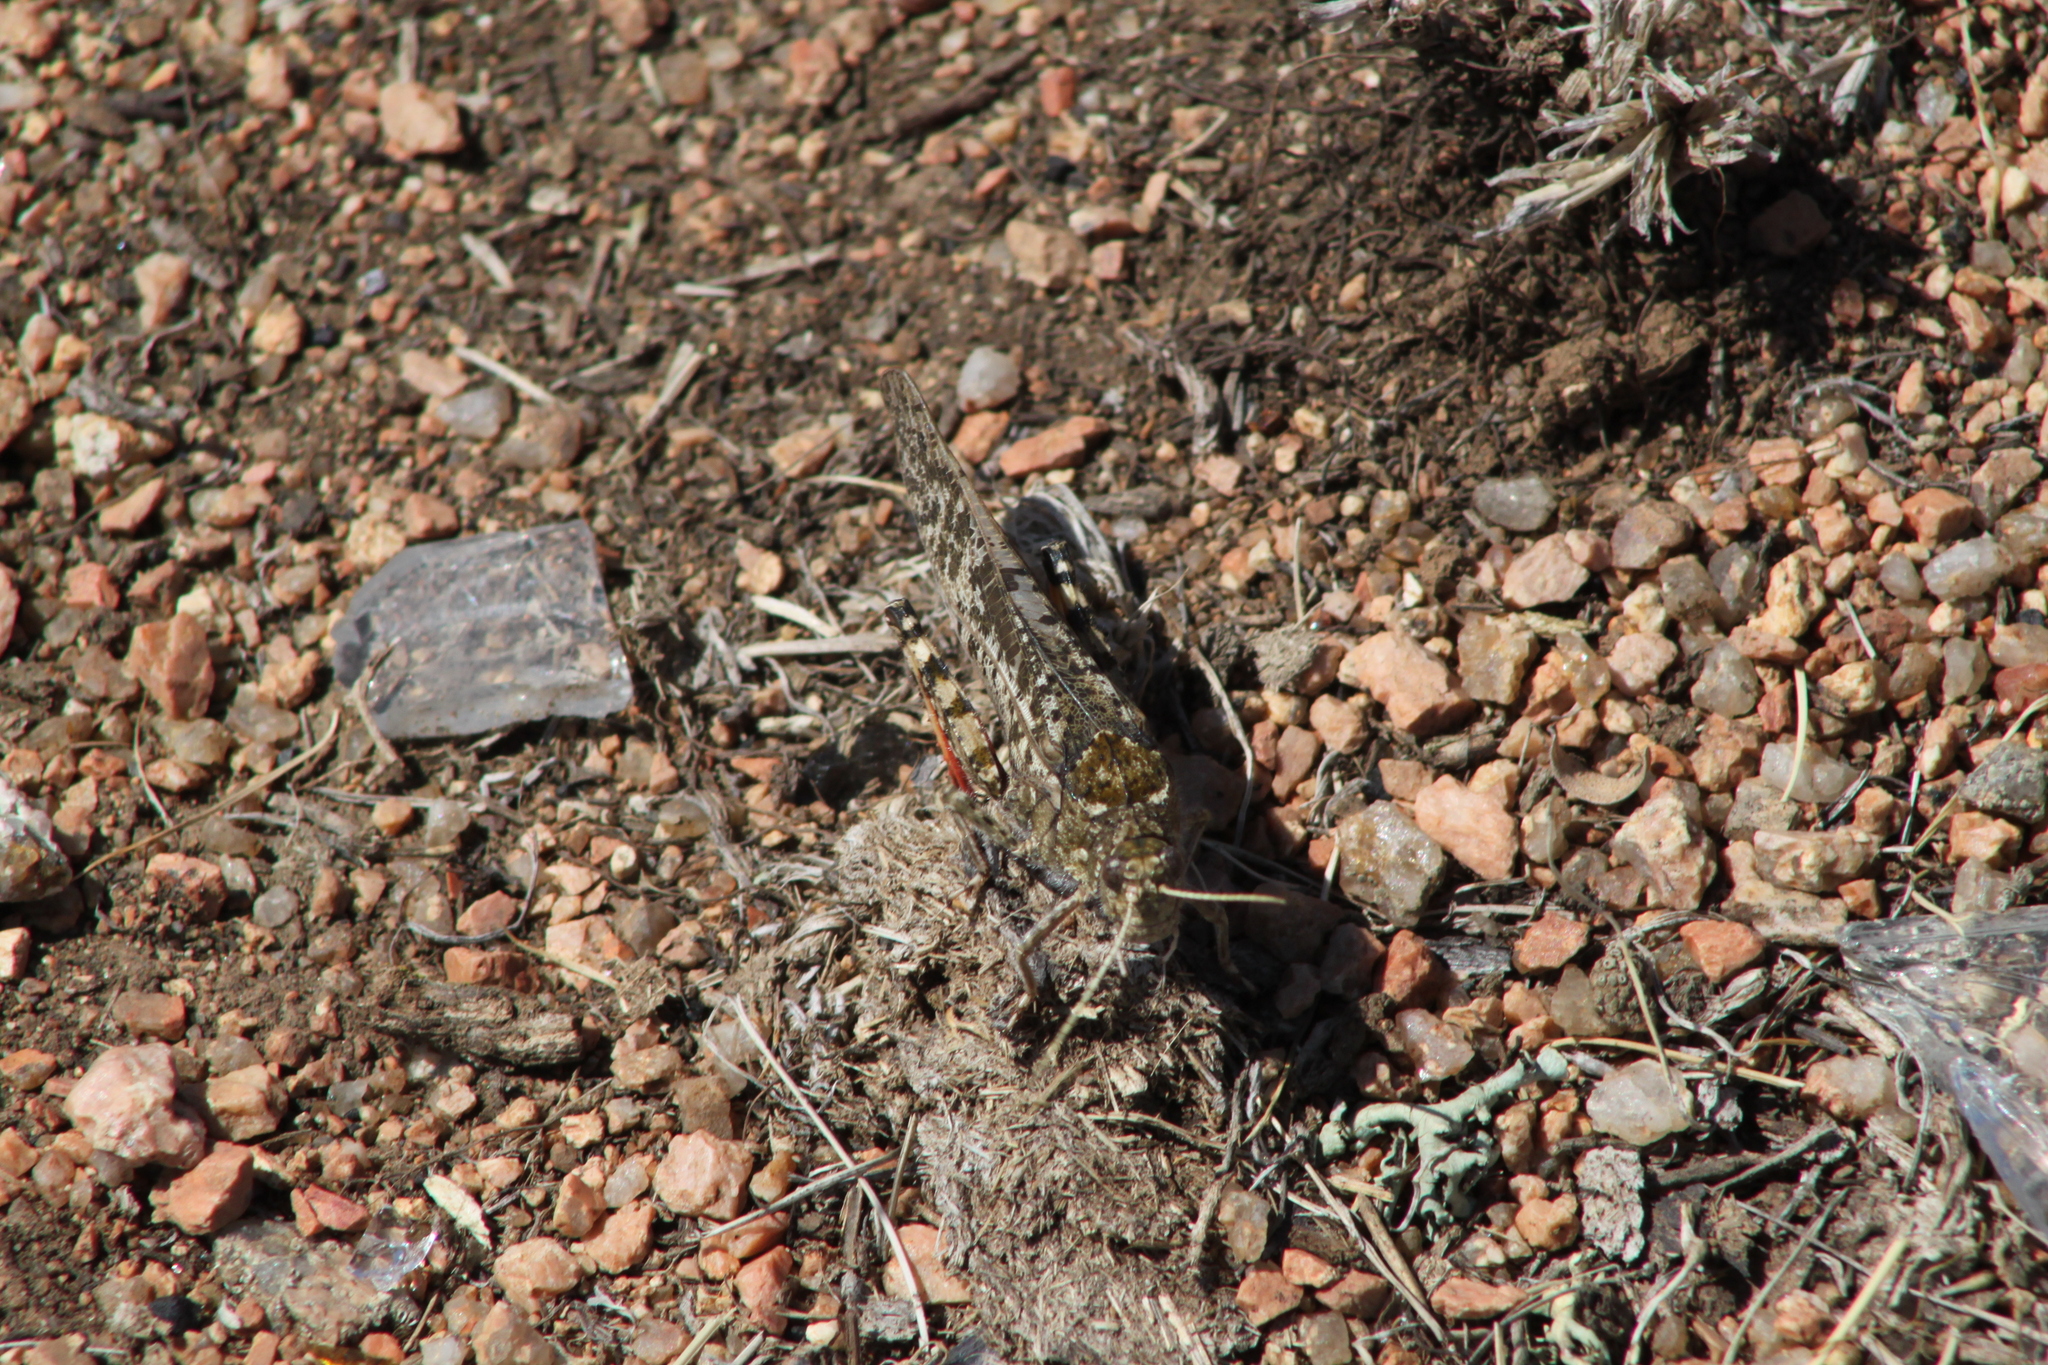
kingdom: Animalia
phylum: Arthropoda
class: Insecta
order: Orthoptera
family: Acrididae
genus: Angaracris
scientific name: Angaracris barabensis
